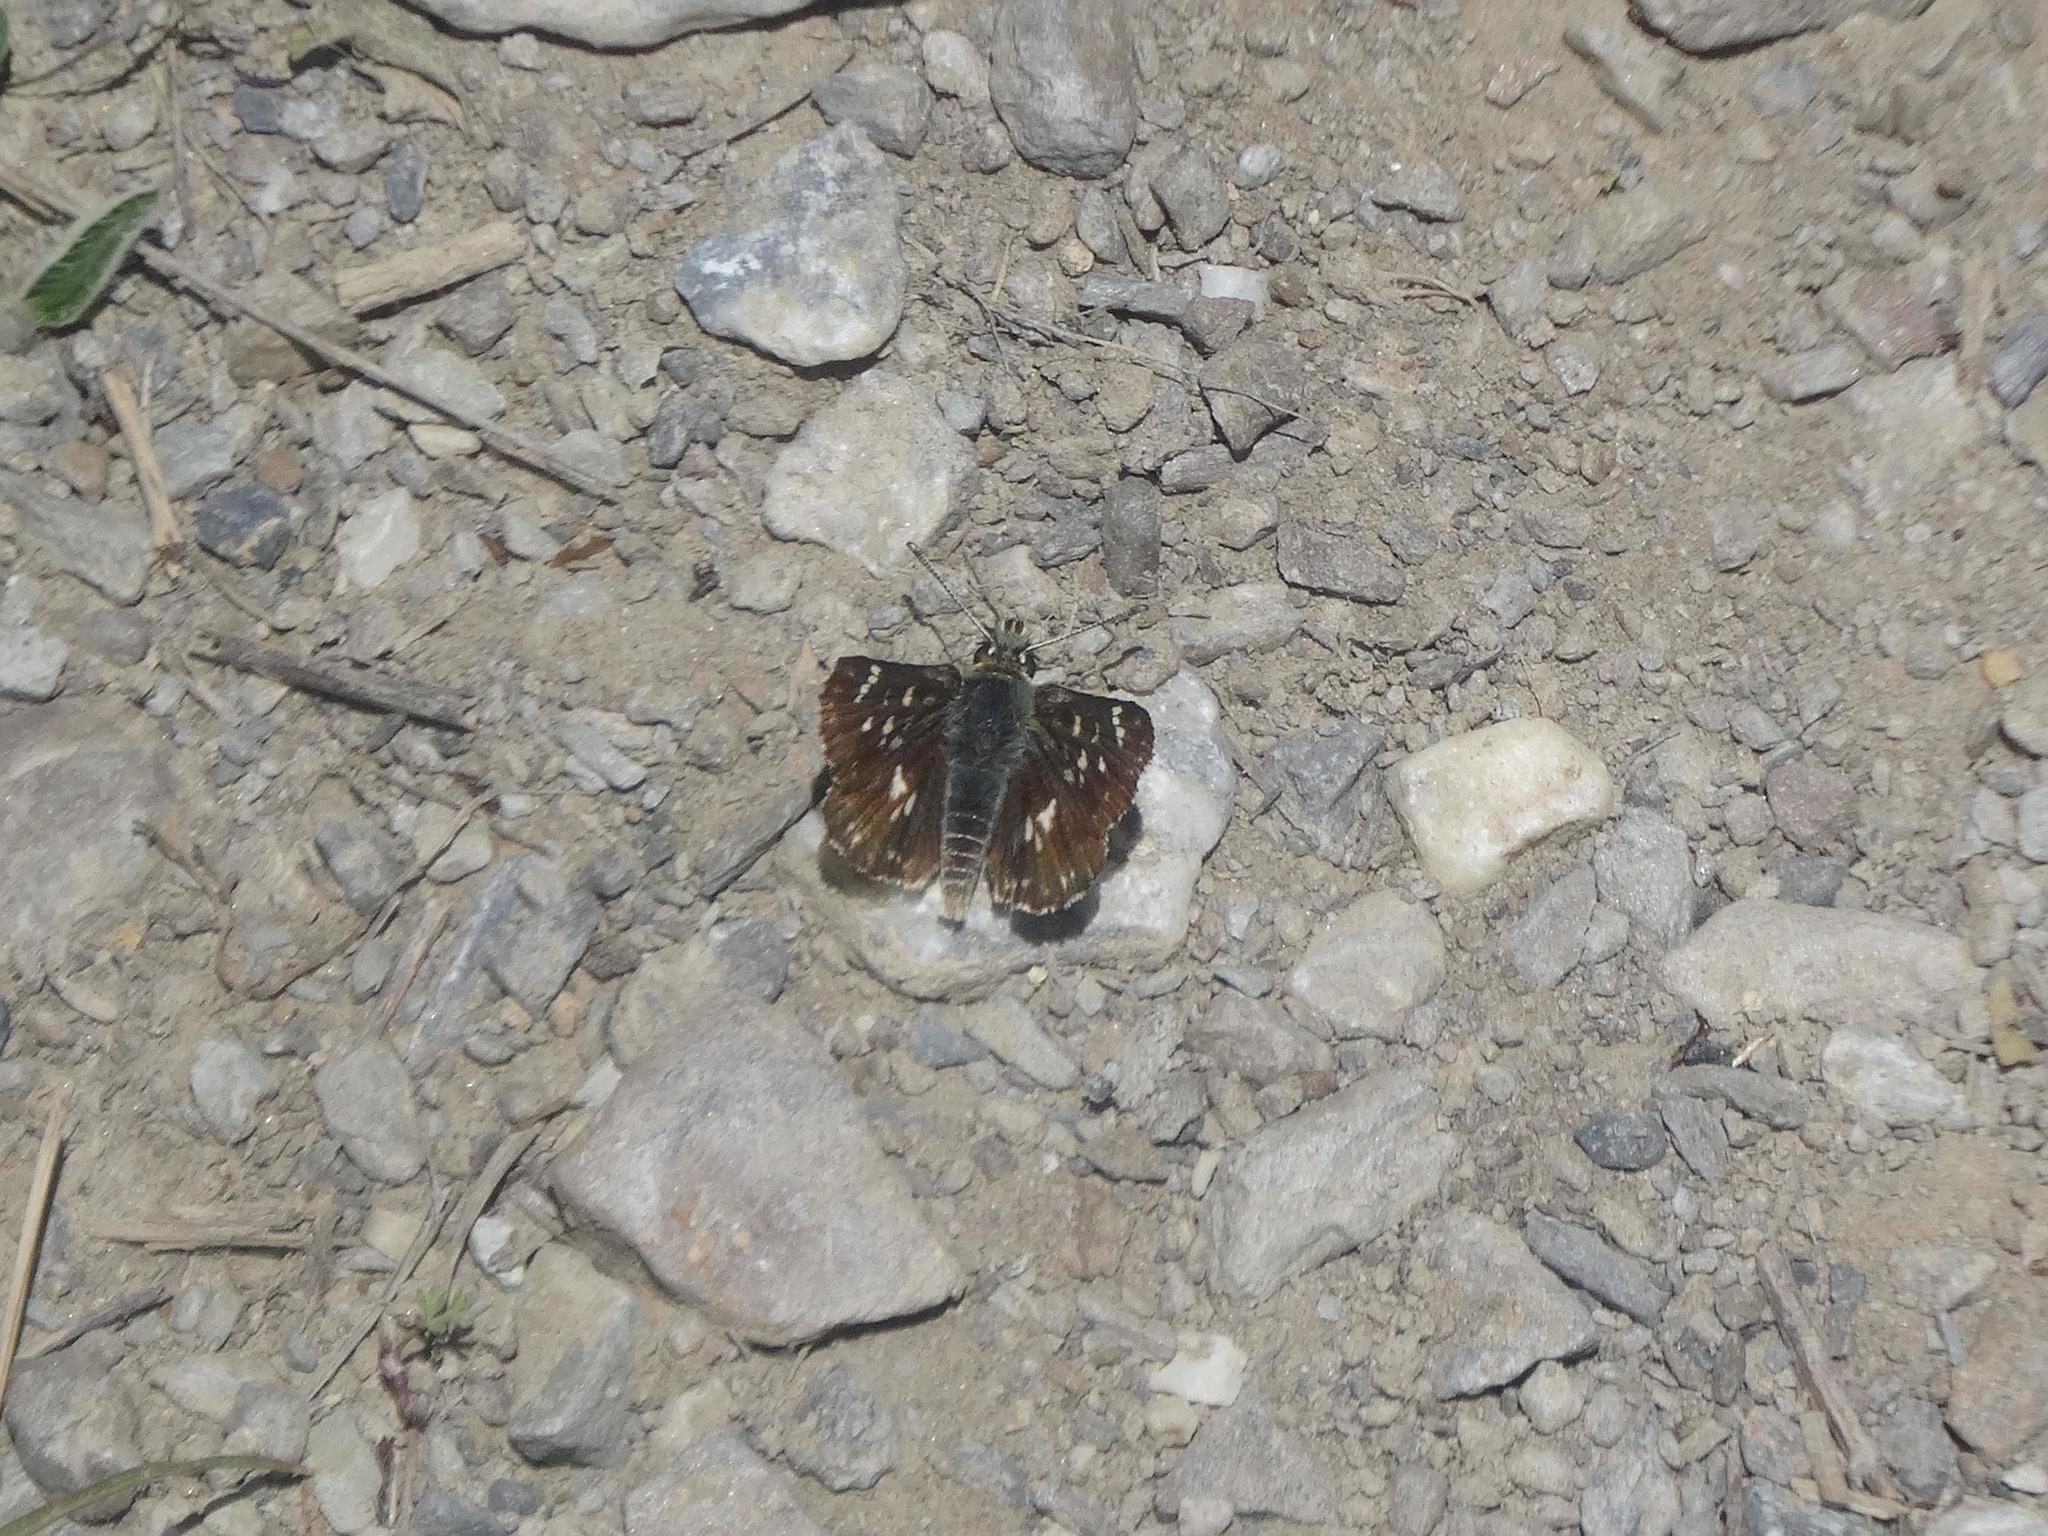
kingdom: Animalia
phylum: Arthropoda
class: Insecta
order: Lepidoptera
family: Hesperiidae
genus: Spialia
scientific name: Spialia sertorius
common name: Red underwing skipper
